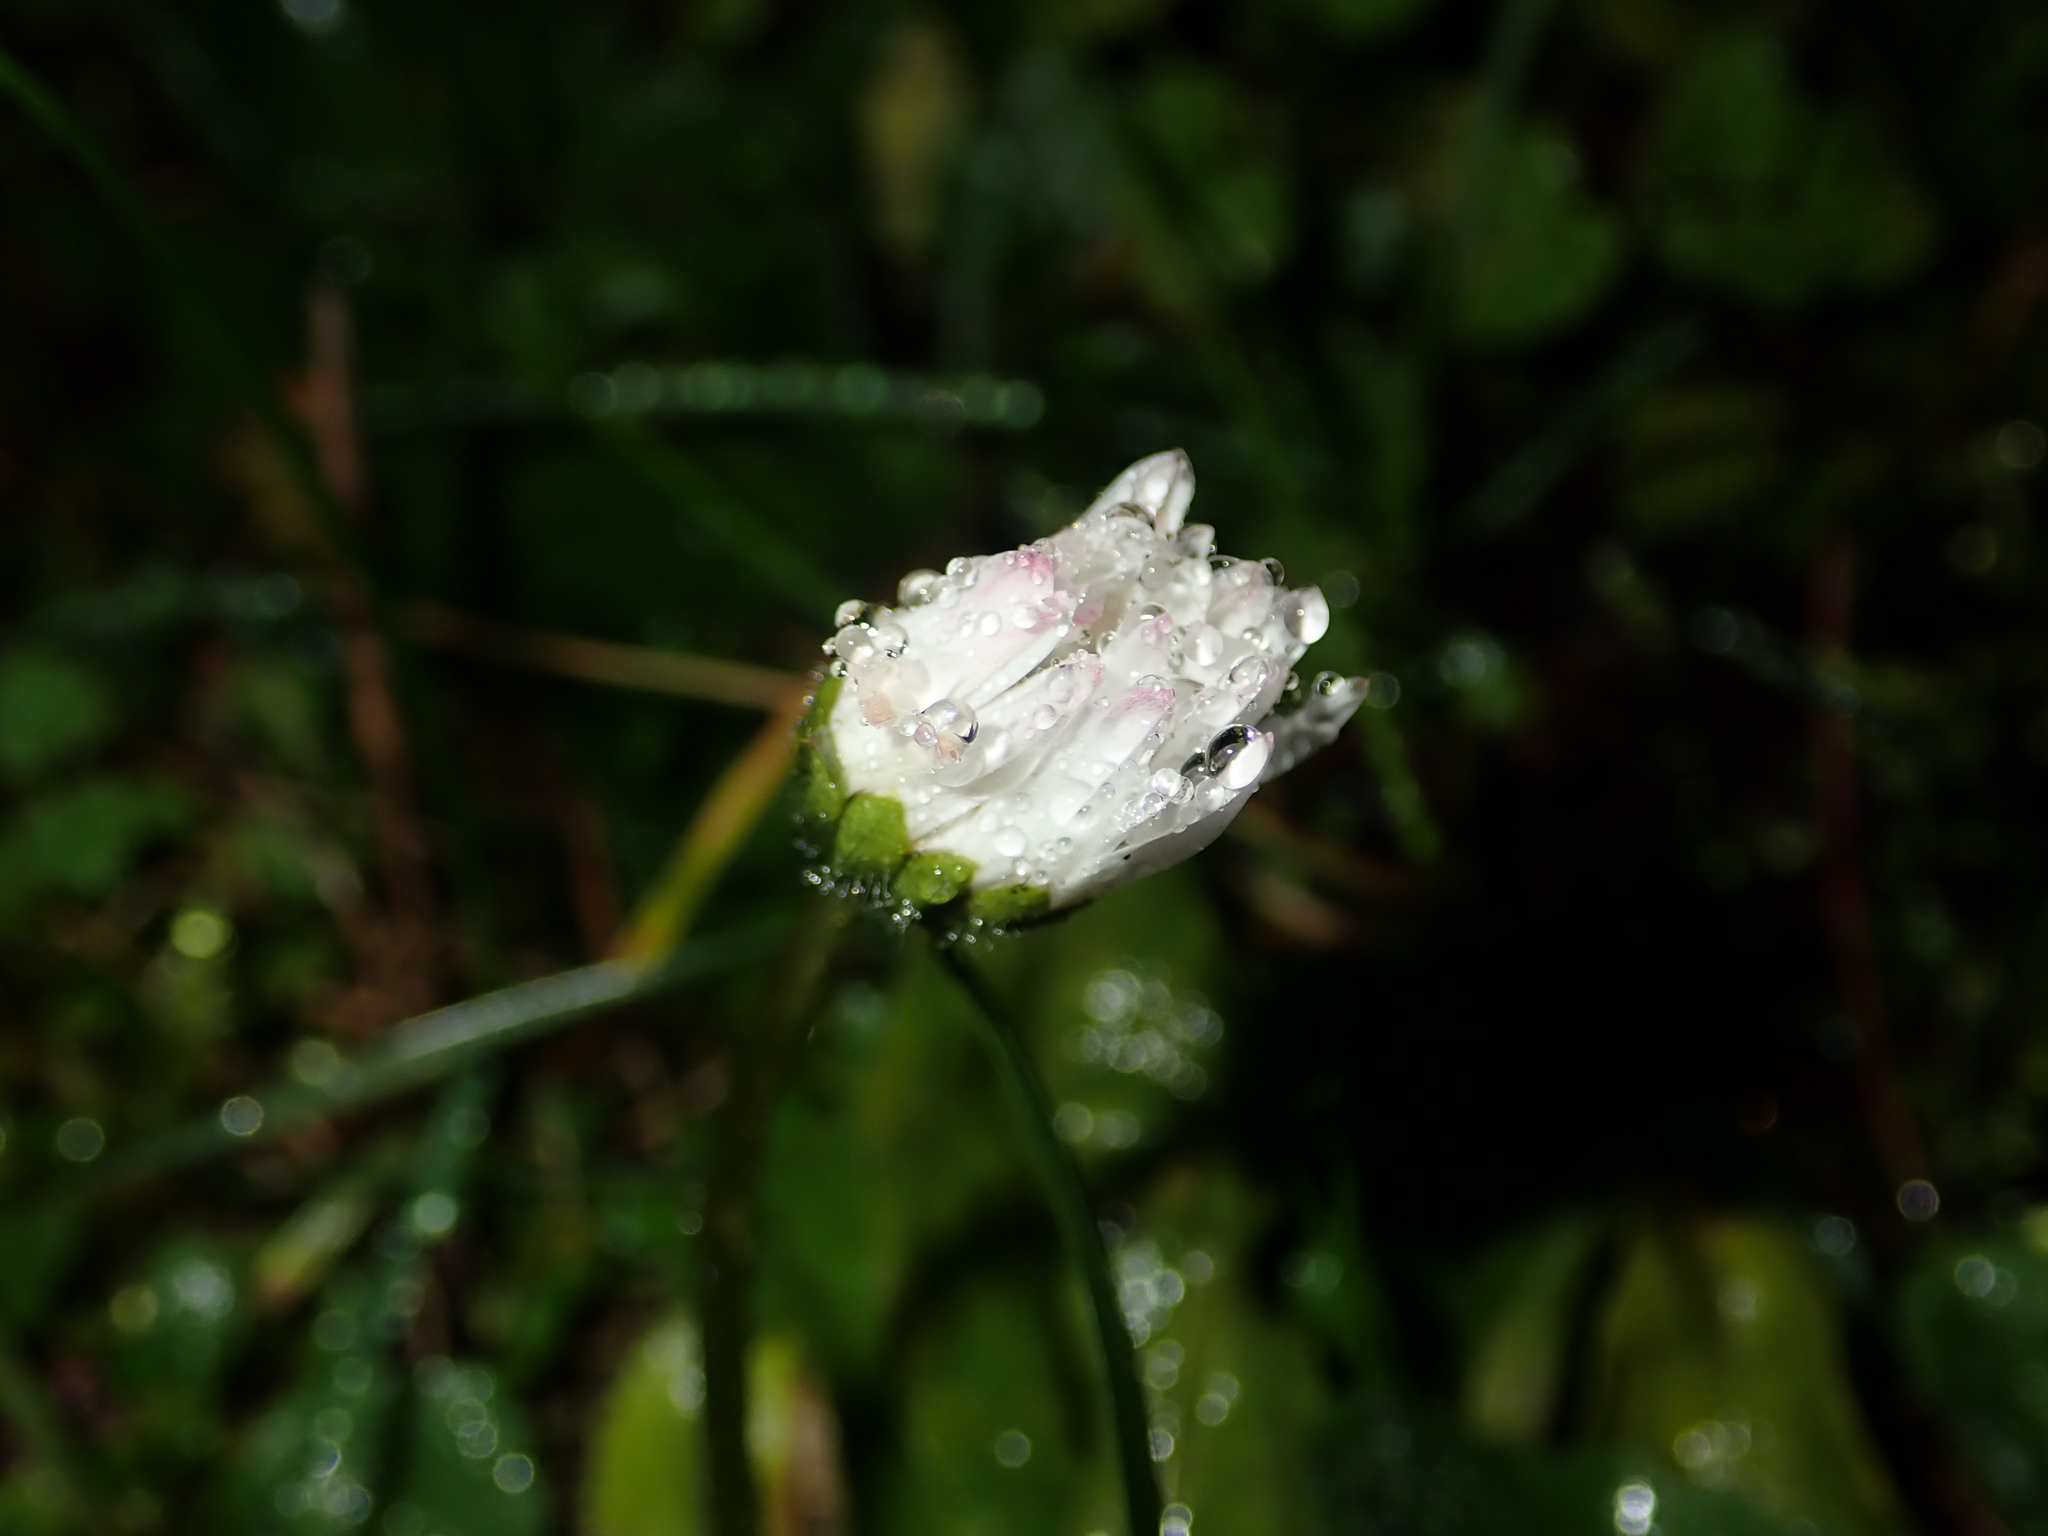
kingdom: Plantae
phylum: Tracheophyta
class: Magnoliopsida
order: Asterales
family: Asteraceae
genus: Bellis
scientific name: Bellis perennis
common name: Lawndaisy
